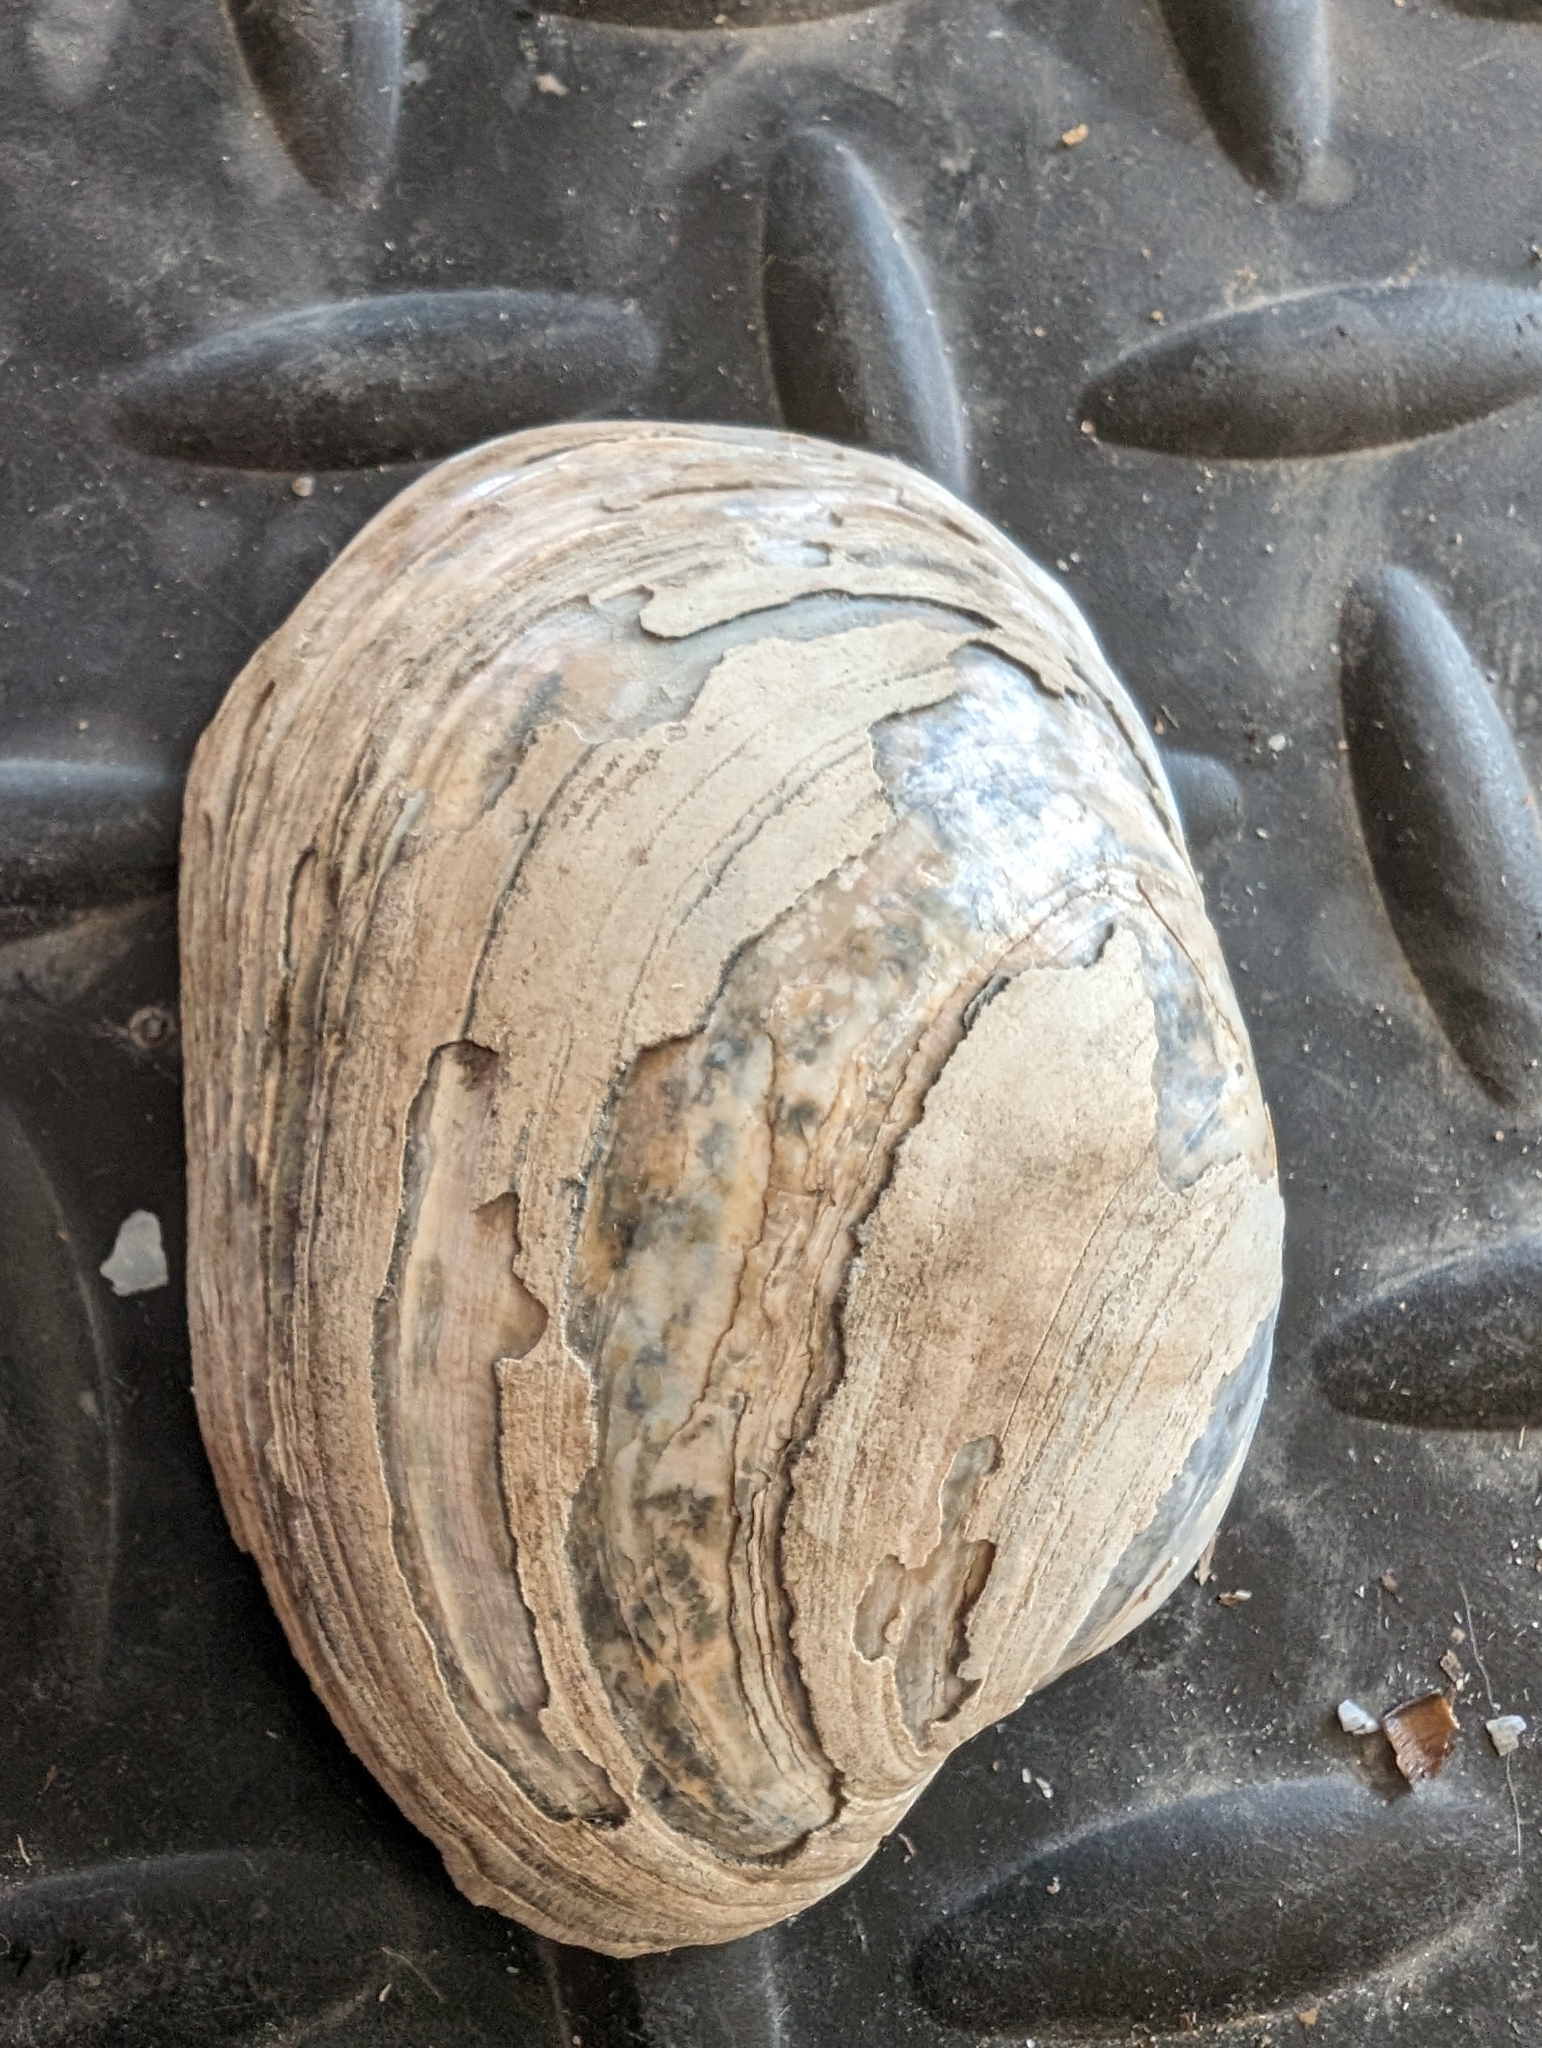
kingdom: Animalia
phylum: Mollusca
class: Bivalvia
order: Unionida
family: Unionidae
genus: Lampsilis
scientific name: Lampsilis cardium
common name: Plain pocketbook
